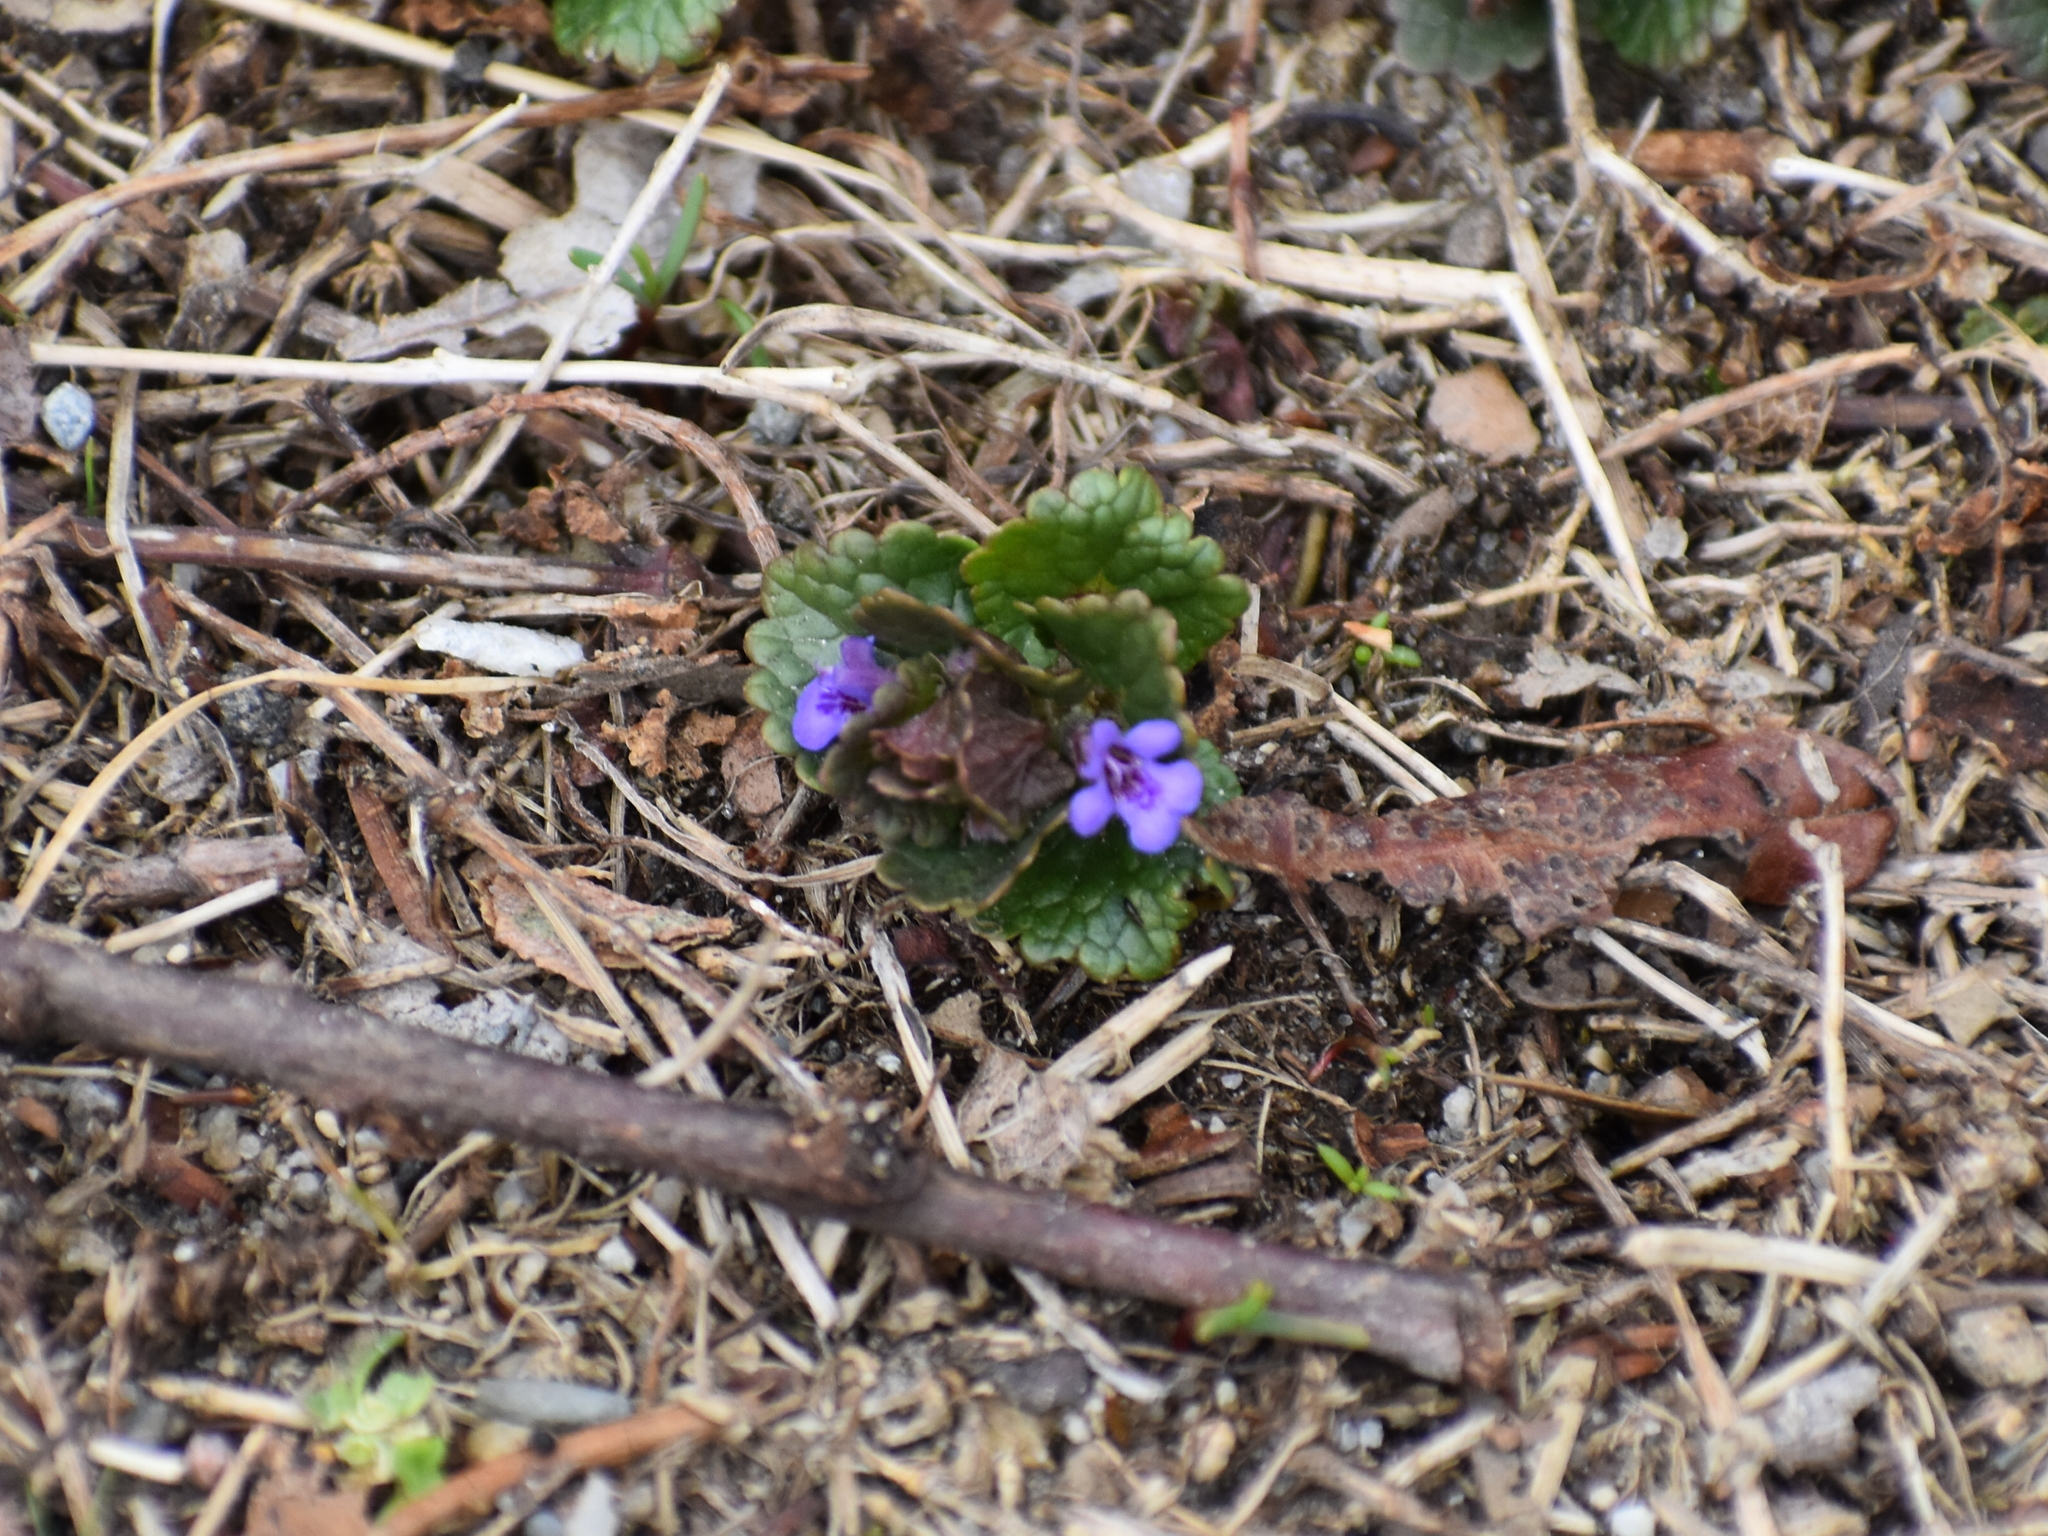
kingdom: Plantae
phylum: Tracheophyta
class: Magnoliopsida
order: Lamiales
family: Lamiaceae
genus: Glechoma
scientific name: Glechoma hederacea
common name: Ground ivy
